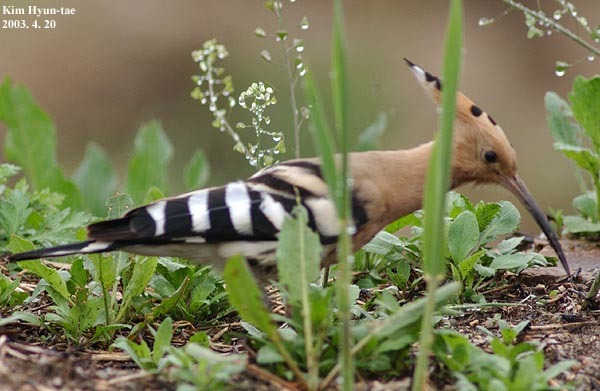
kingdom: Animalia
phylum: Chordata
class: Aves
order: Bucerotiformes
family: Upupidae
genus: Upupa
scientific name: Upupa epops
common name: Eurasian hoopoe
